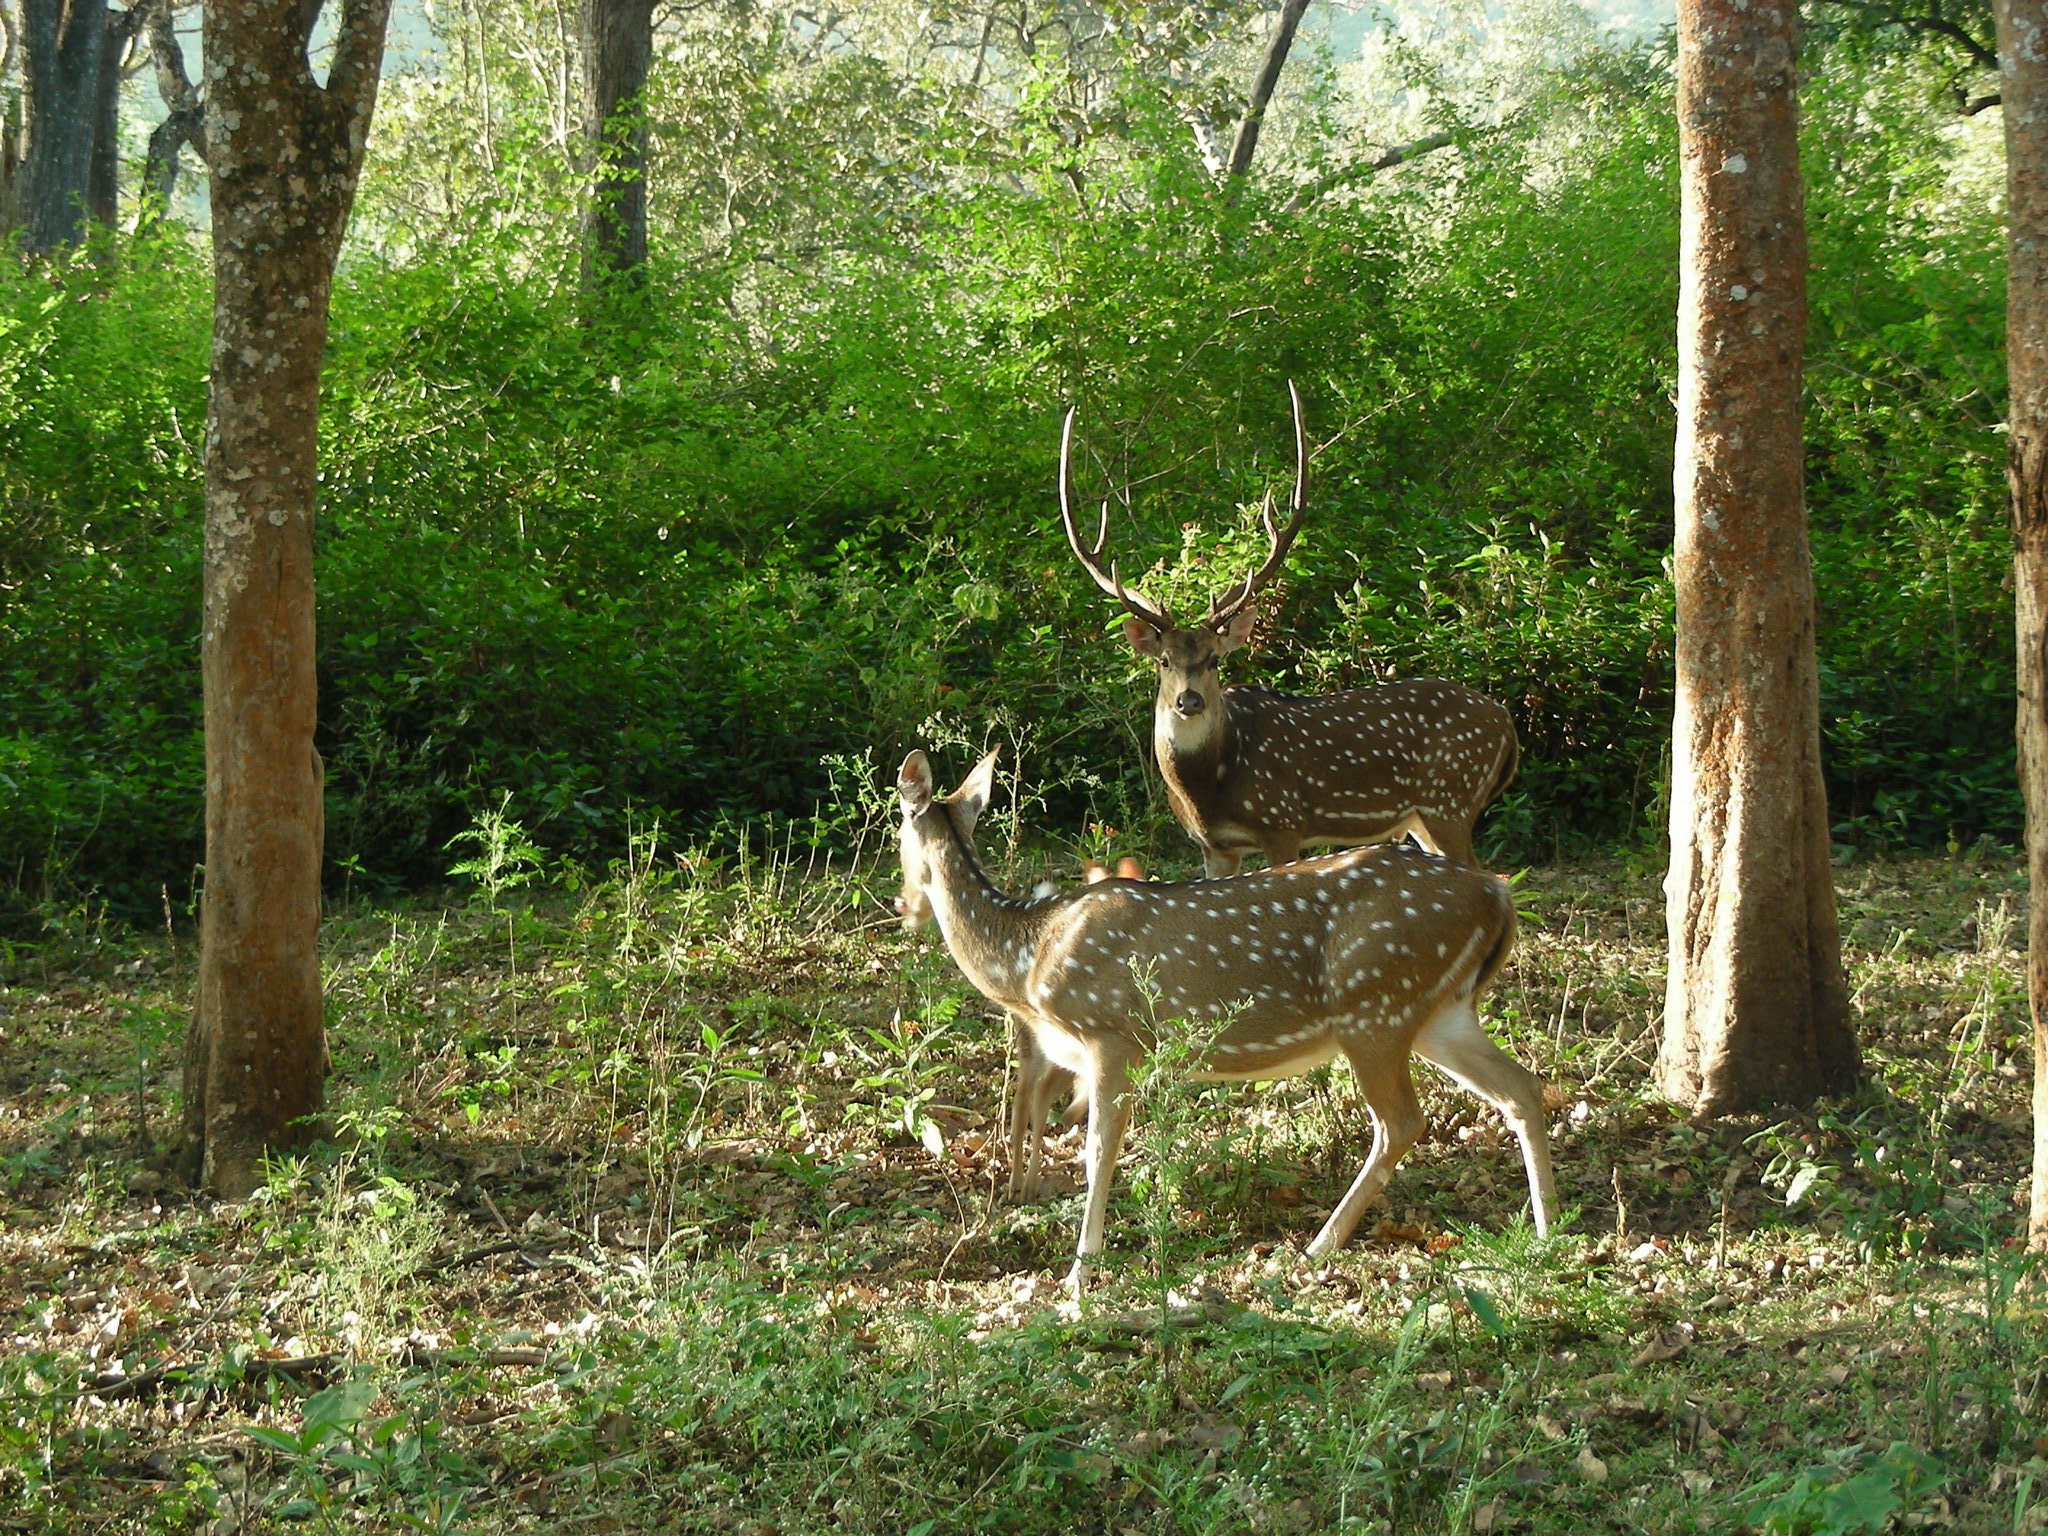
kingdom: Animalia
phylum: Chordata
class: Mammalia
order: Artiodactyla
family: Cervidae
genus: Axis
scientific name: Axis axis
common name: Chital
